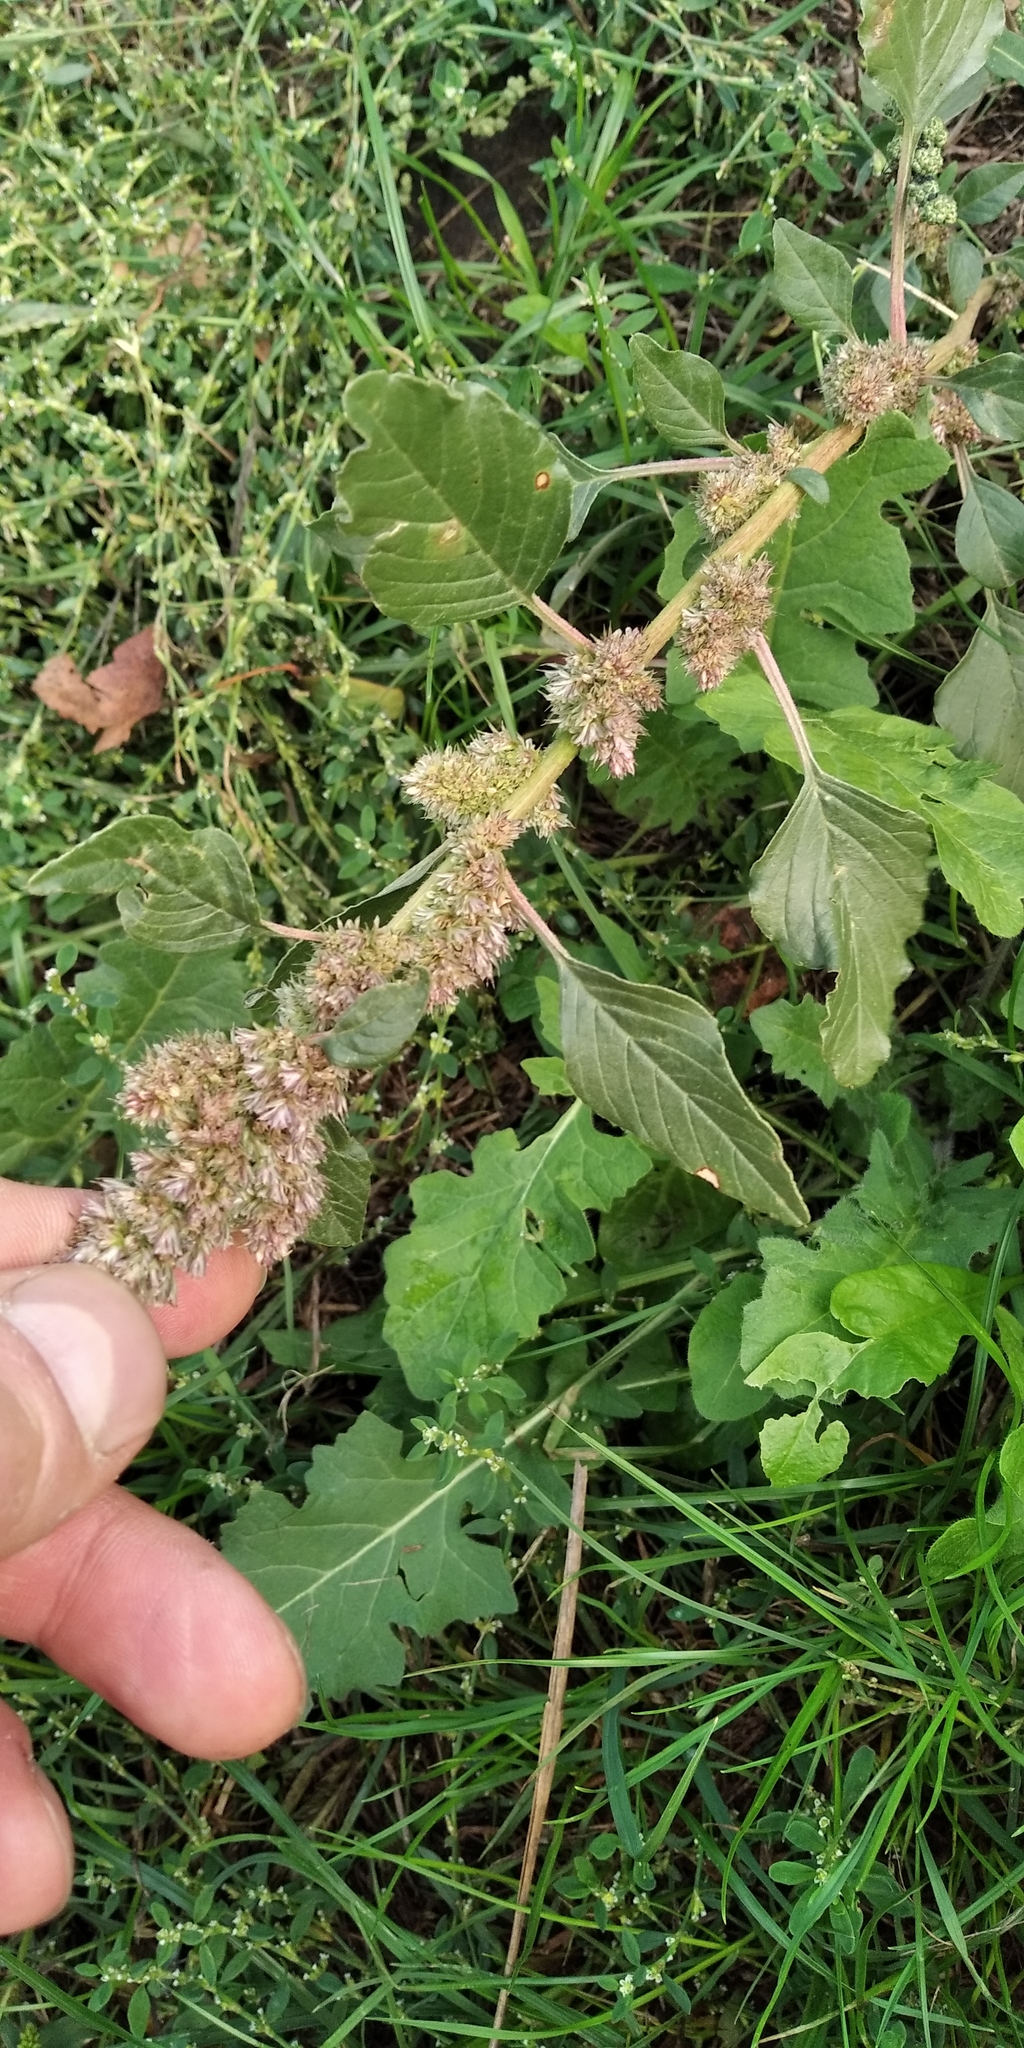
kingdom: Plantae
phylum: Tracheophyta
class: Magnoliopsida
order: Caryophyllales
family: Amaranthaceae
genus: Amaranthus
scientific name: Amaranthus retroflexus
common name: Redroot amaranth
